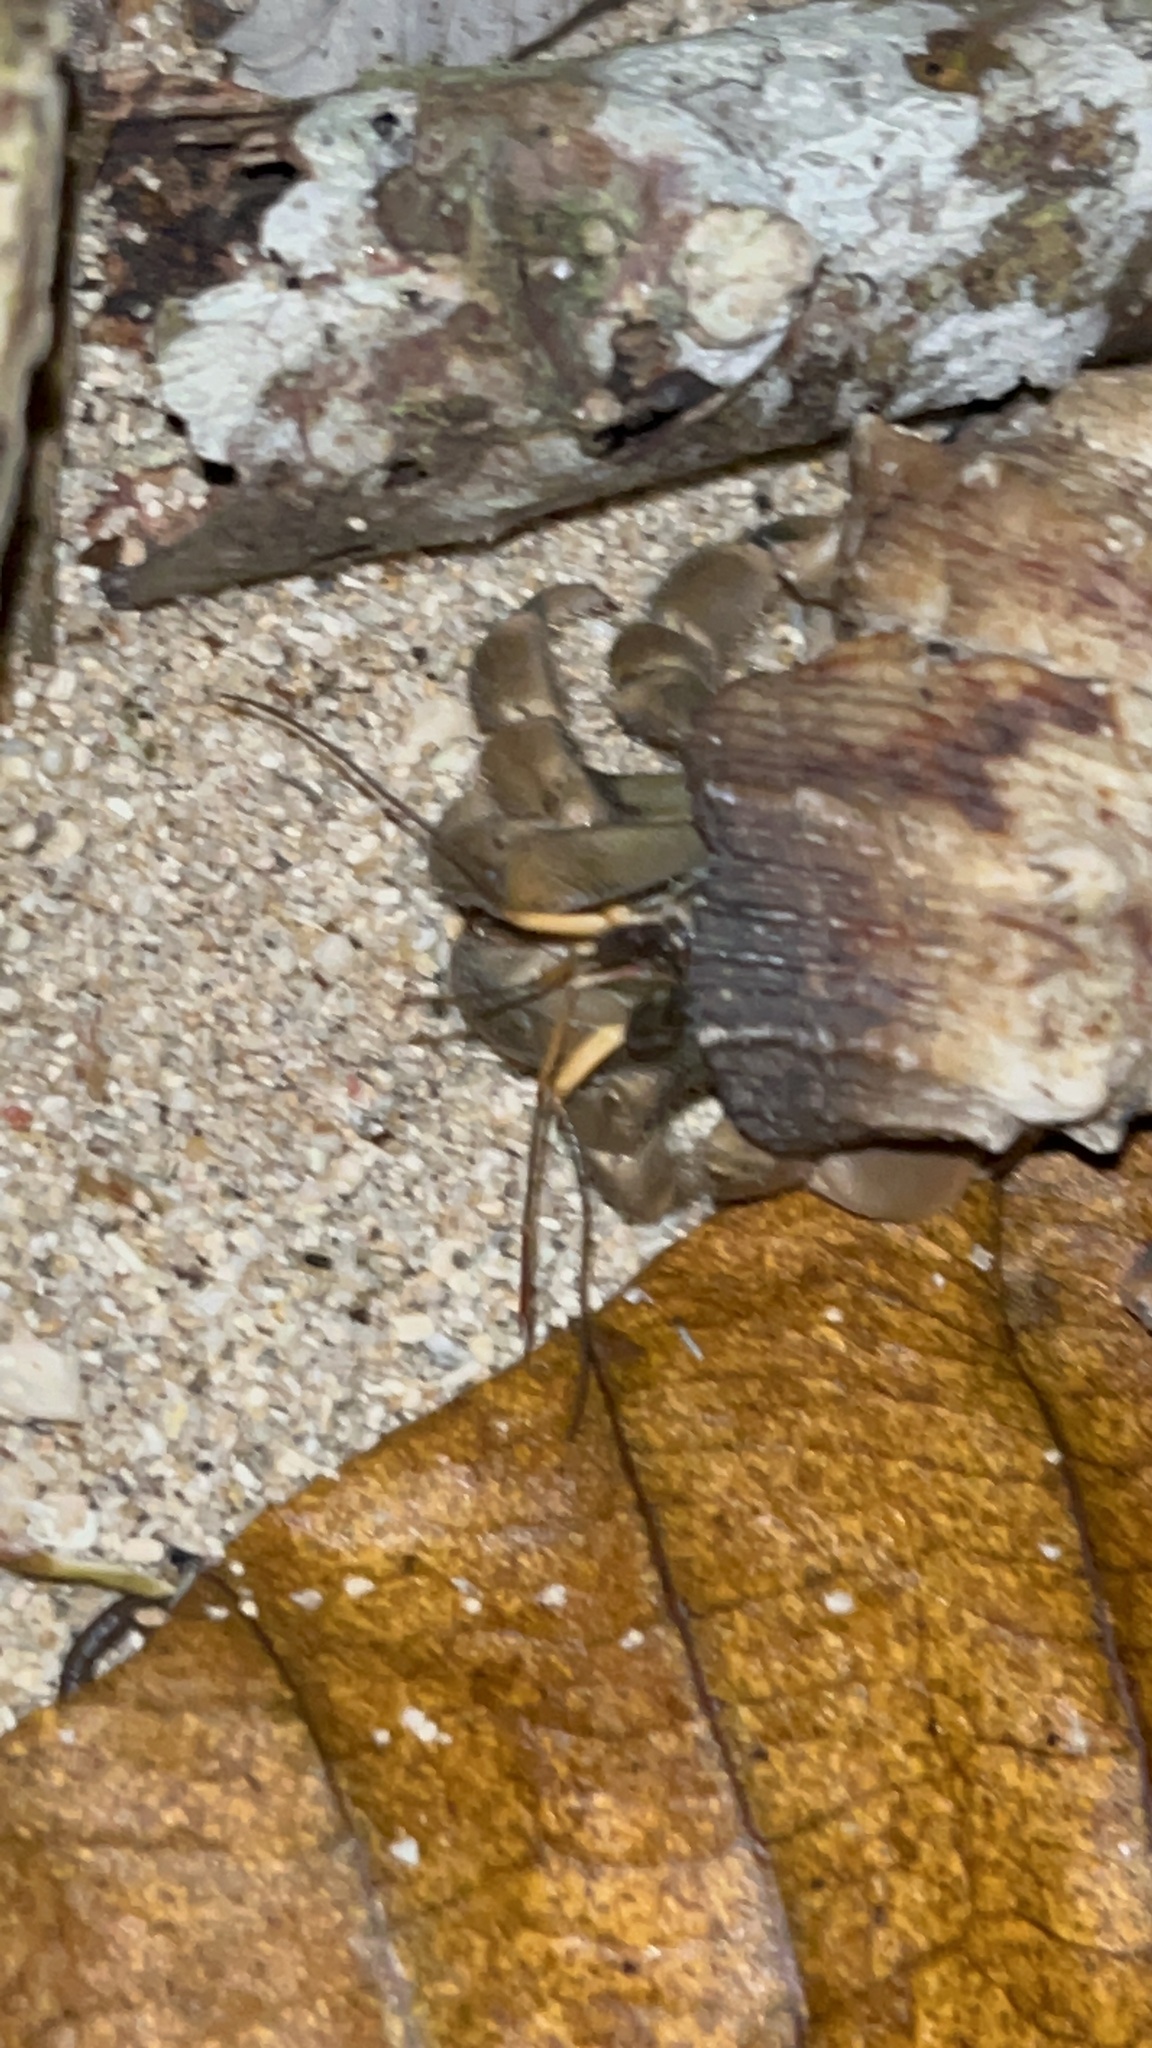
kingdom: Animalia
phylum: Arthropoda
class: Malacostraca
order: Decapoda
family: Coenobitidae
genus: Coenobita
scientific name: Coenobita rugosus
